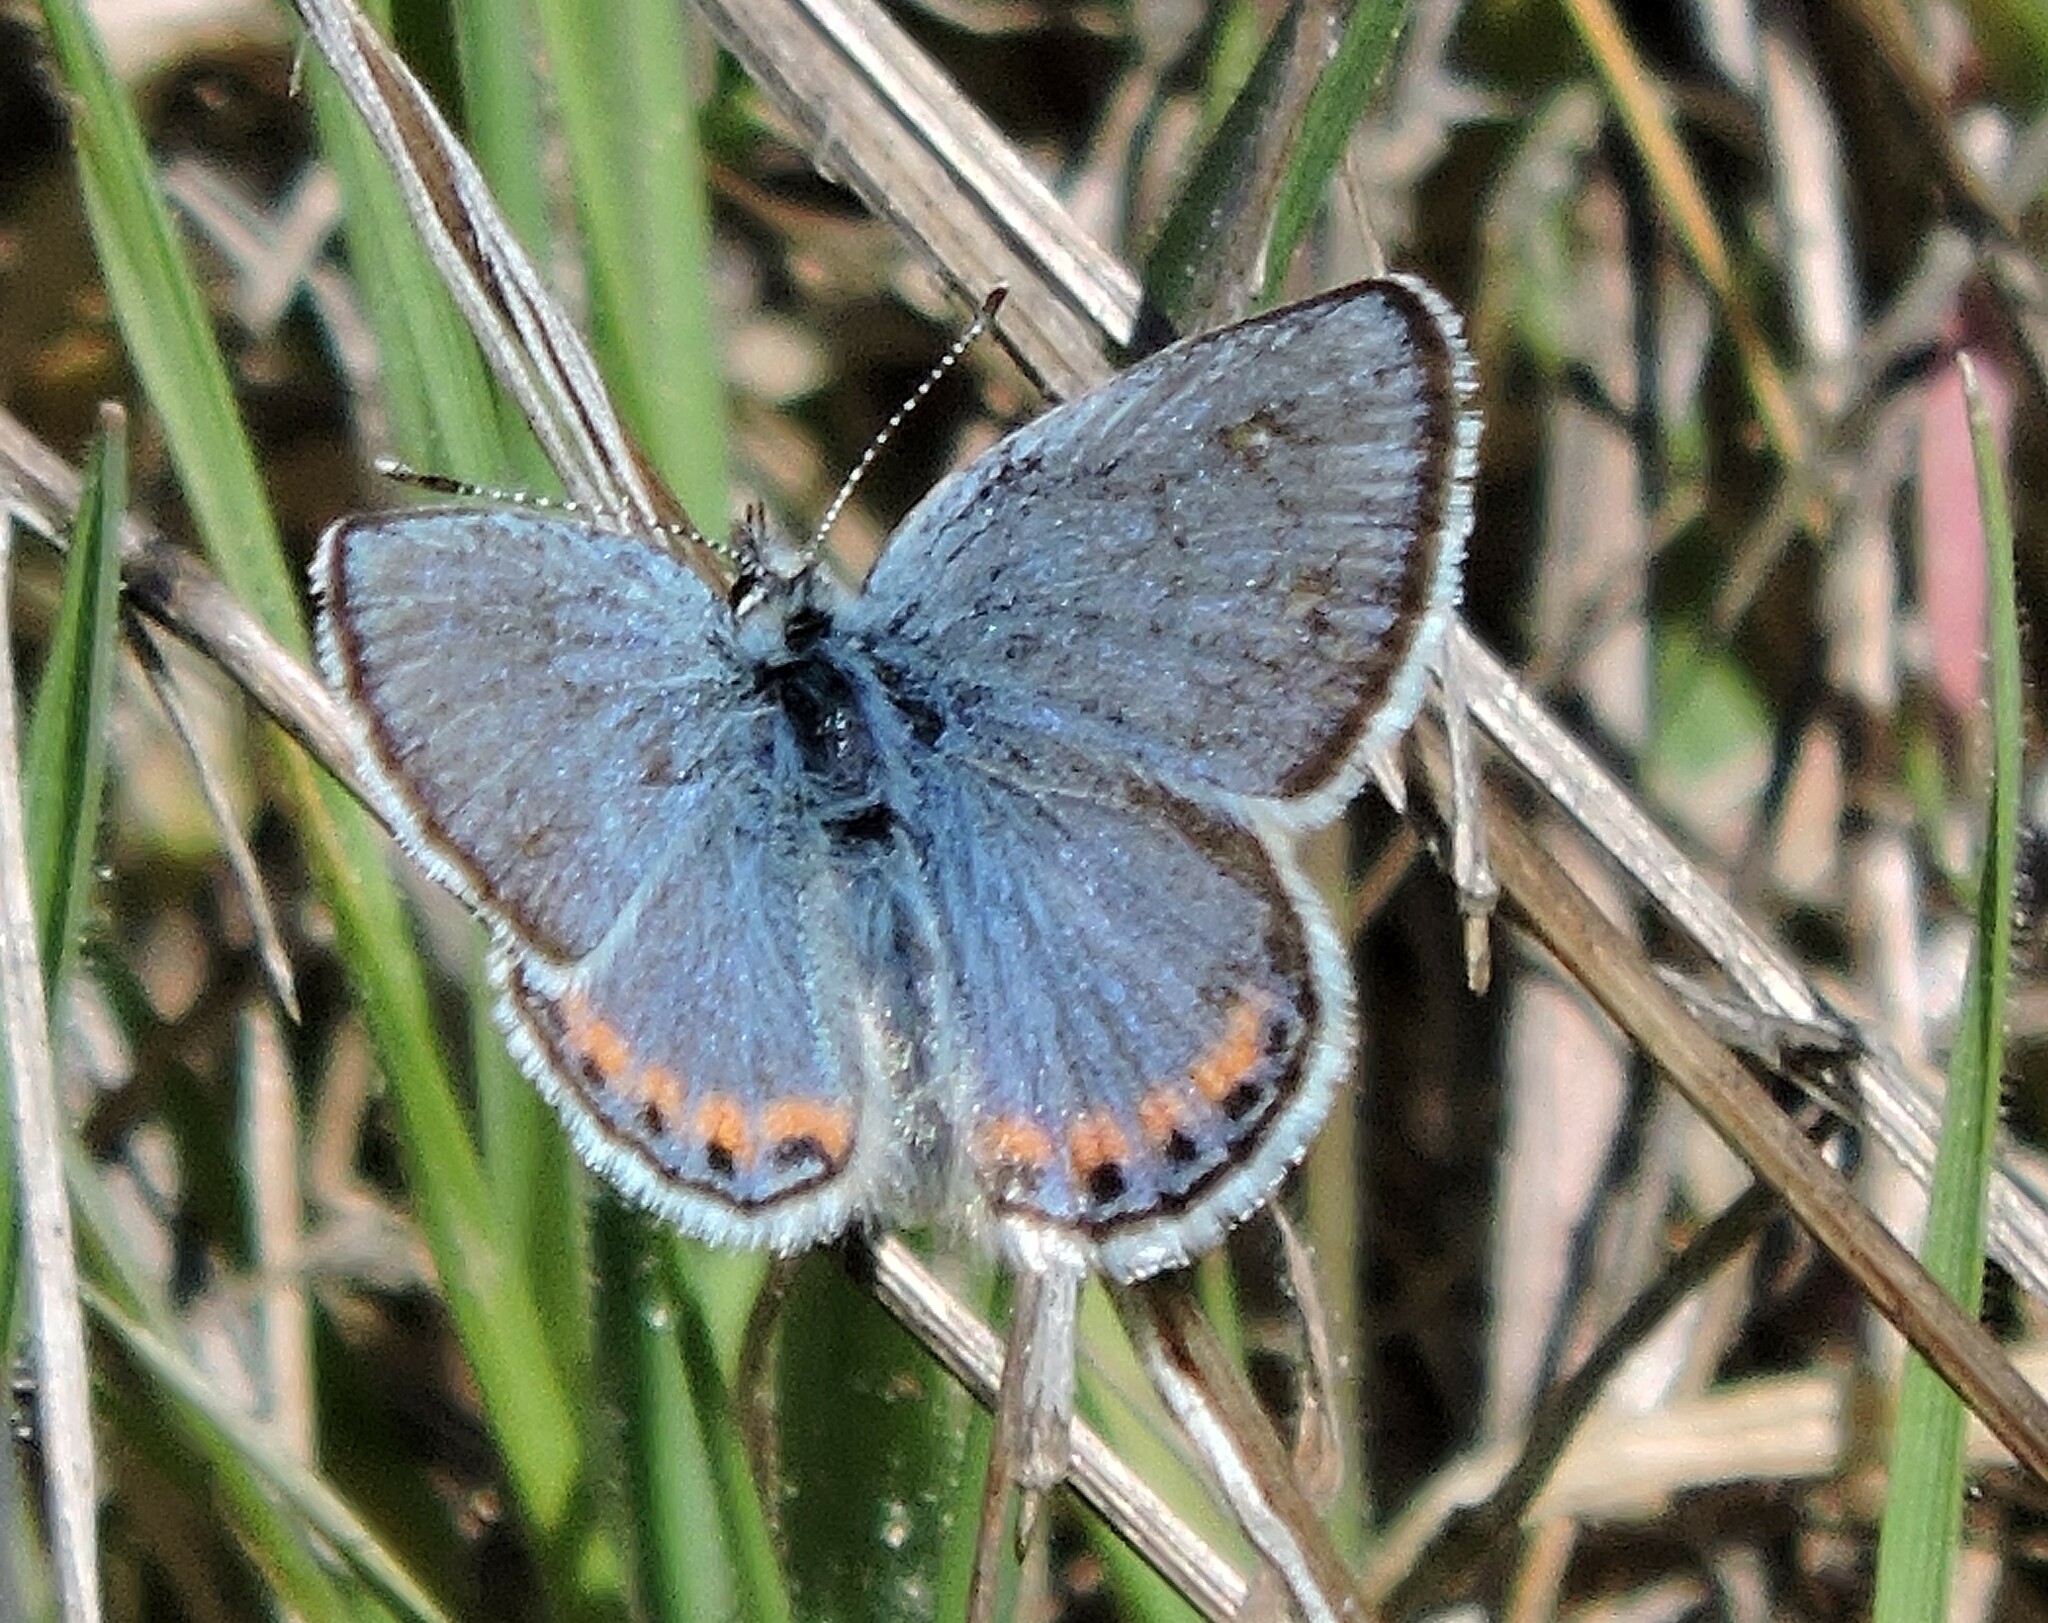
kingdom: Animalia
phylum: Arthropoda
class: Insecta
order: Lepidoptera
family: Lycaenidae
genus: Icaricia
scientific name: Icaricia acmon
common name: Acmon blue
